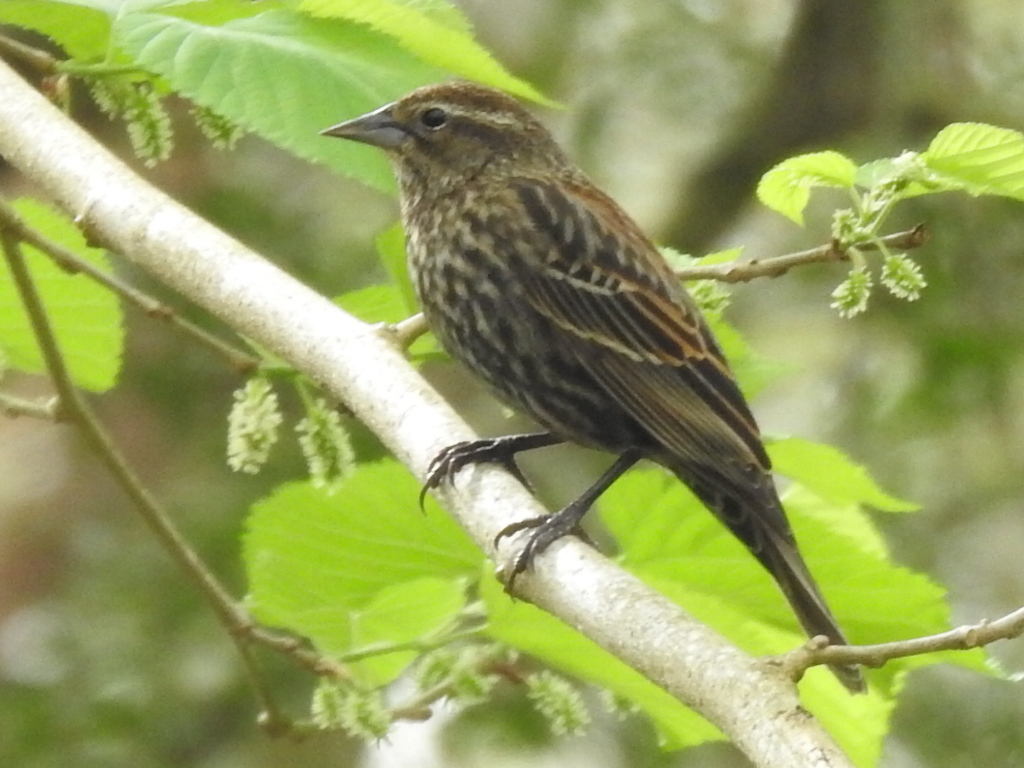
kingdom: Animalia
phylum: Chordata
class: Aves
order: Passeriformes
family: Icteridae
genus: Agelaius
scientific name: Agelaius phoeniceus
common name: Red-winged blackbird
